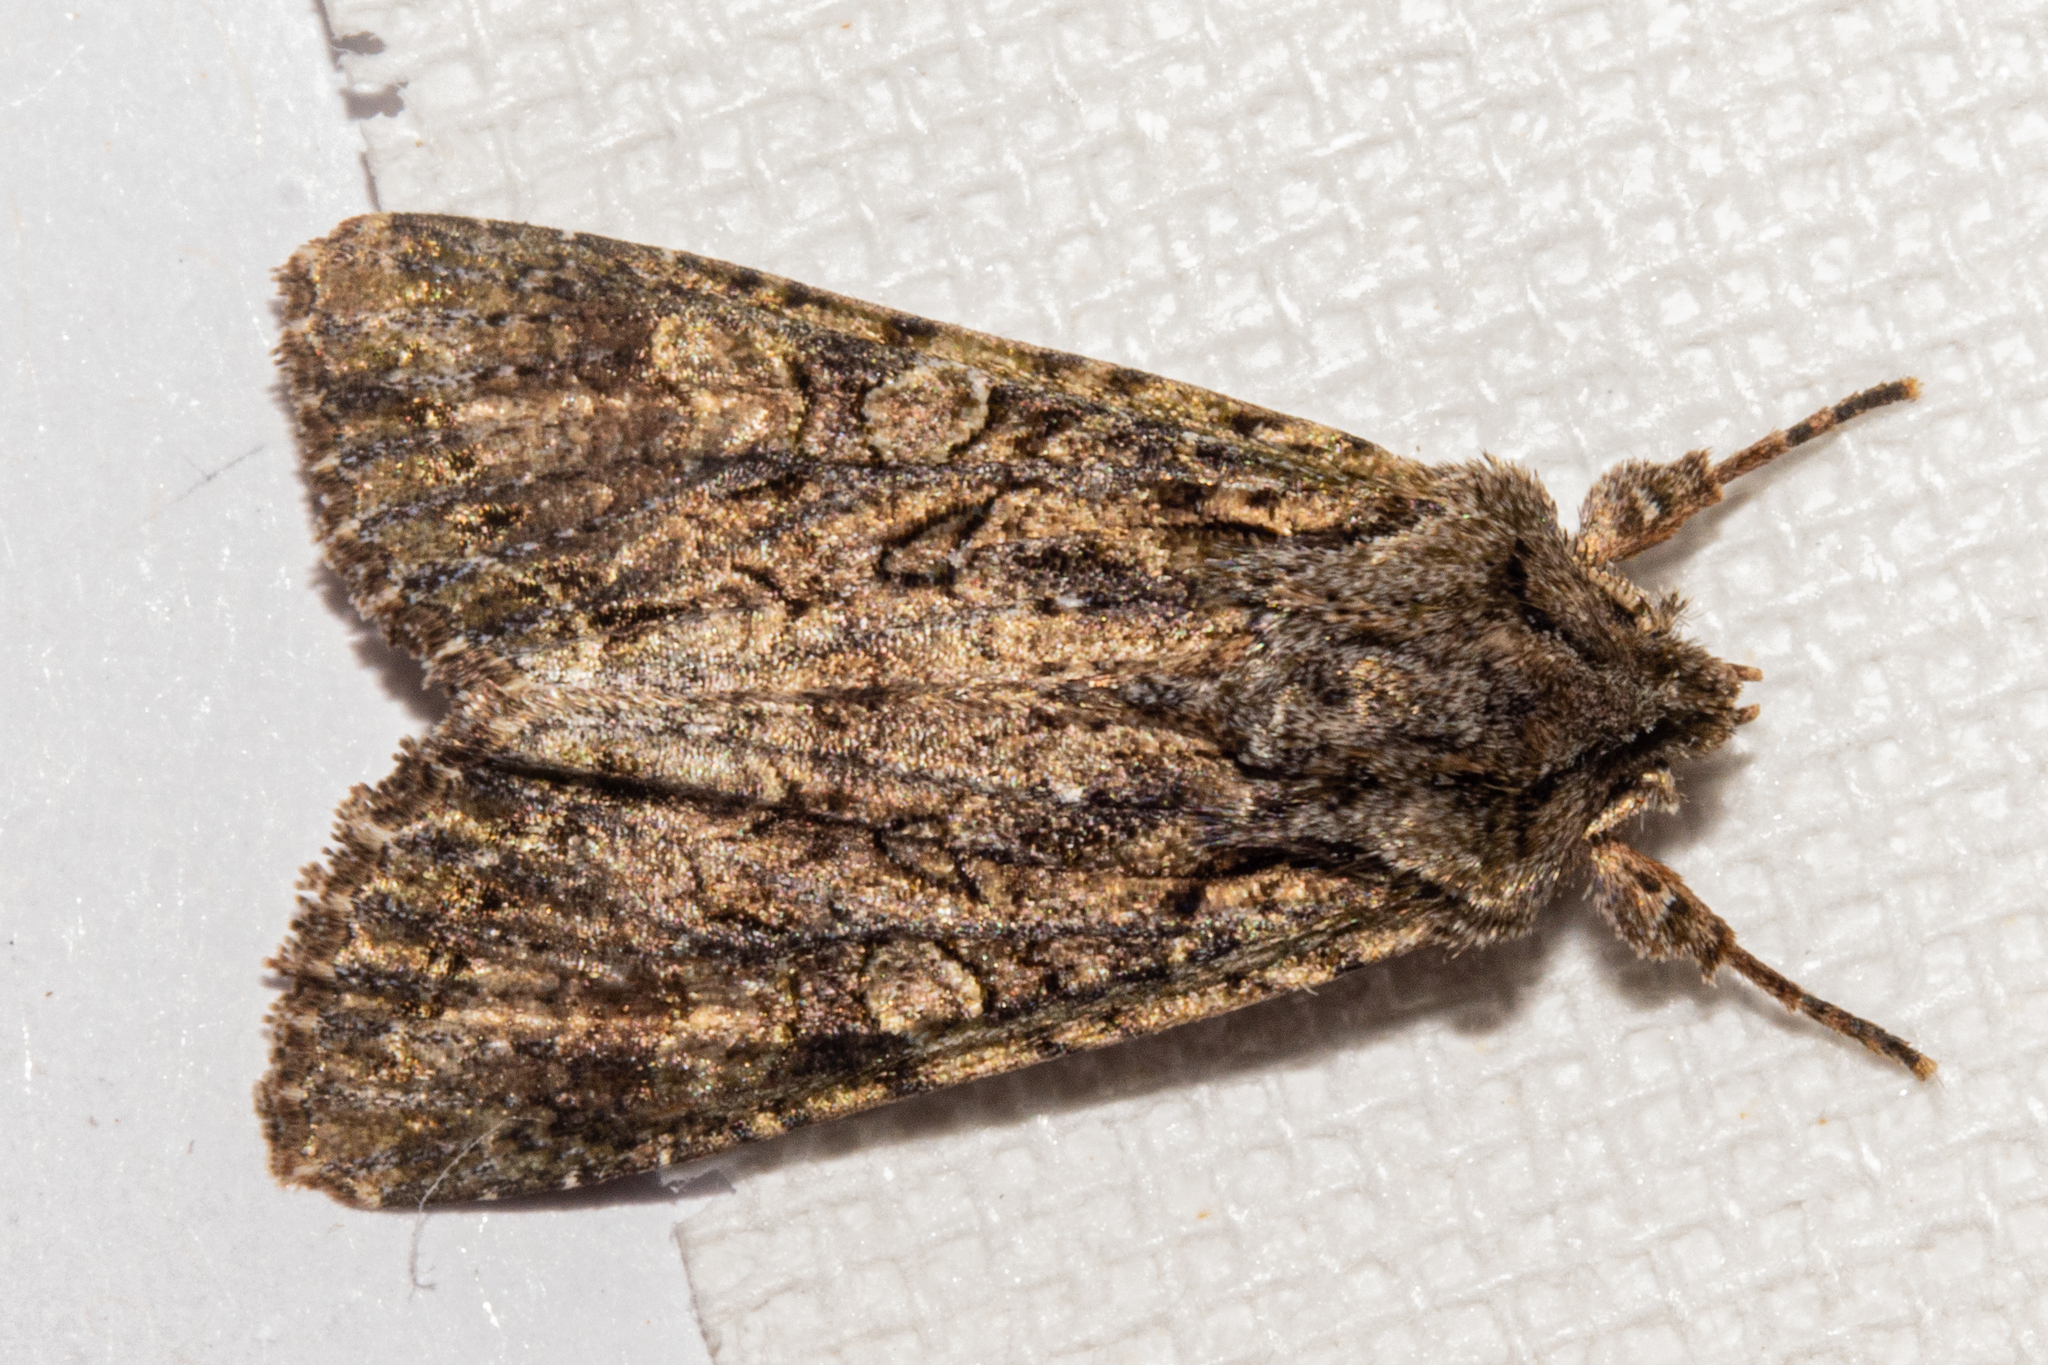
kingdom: Animalia
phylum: Arthropoda
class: Insecta
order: Lepidoptera
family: Noctuidae
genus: Ichneutica
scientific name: Ichneutica mutans
